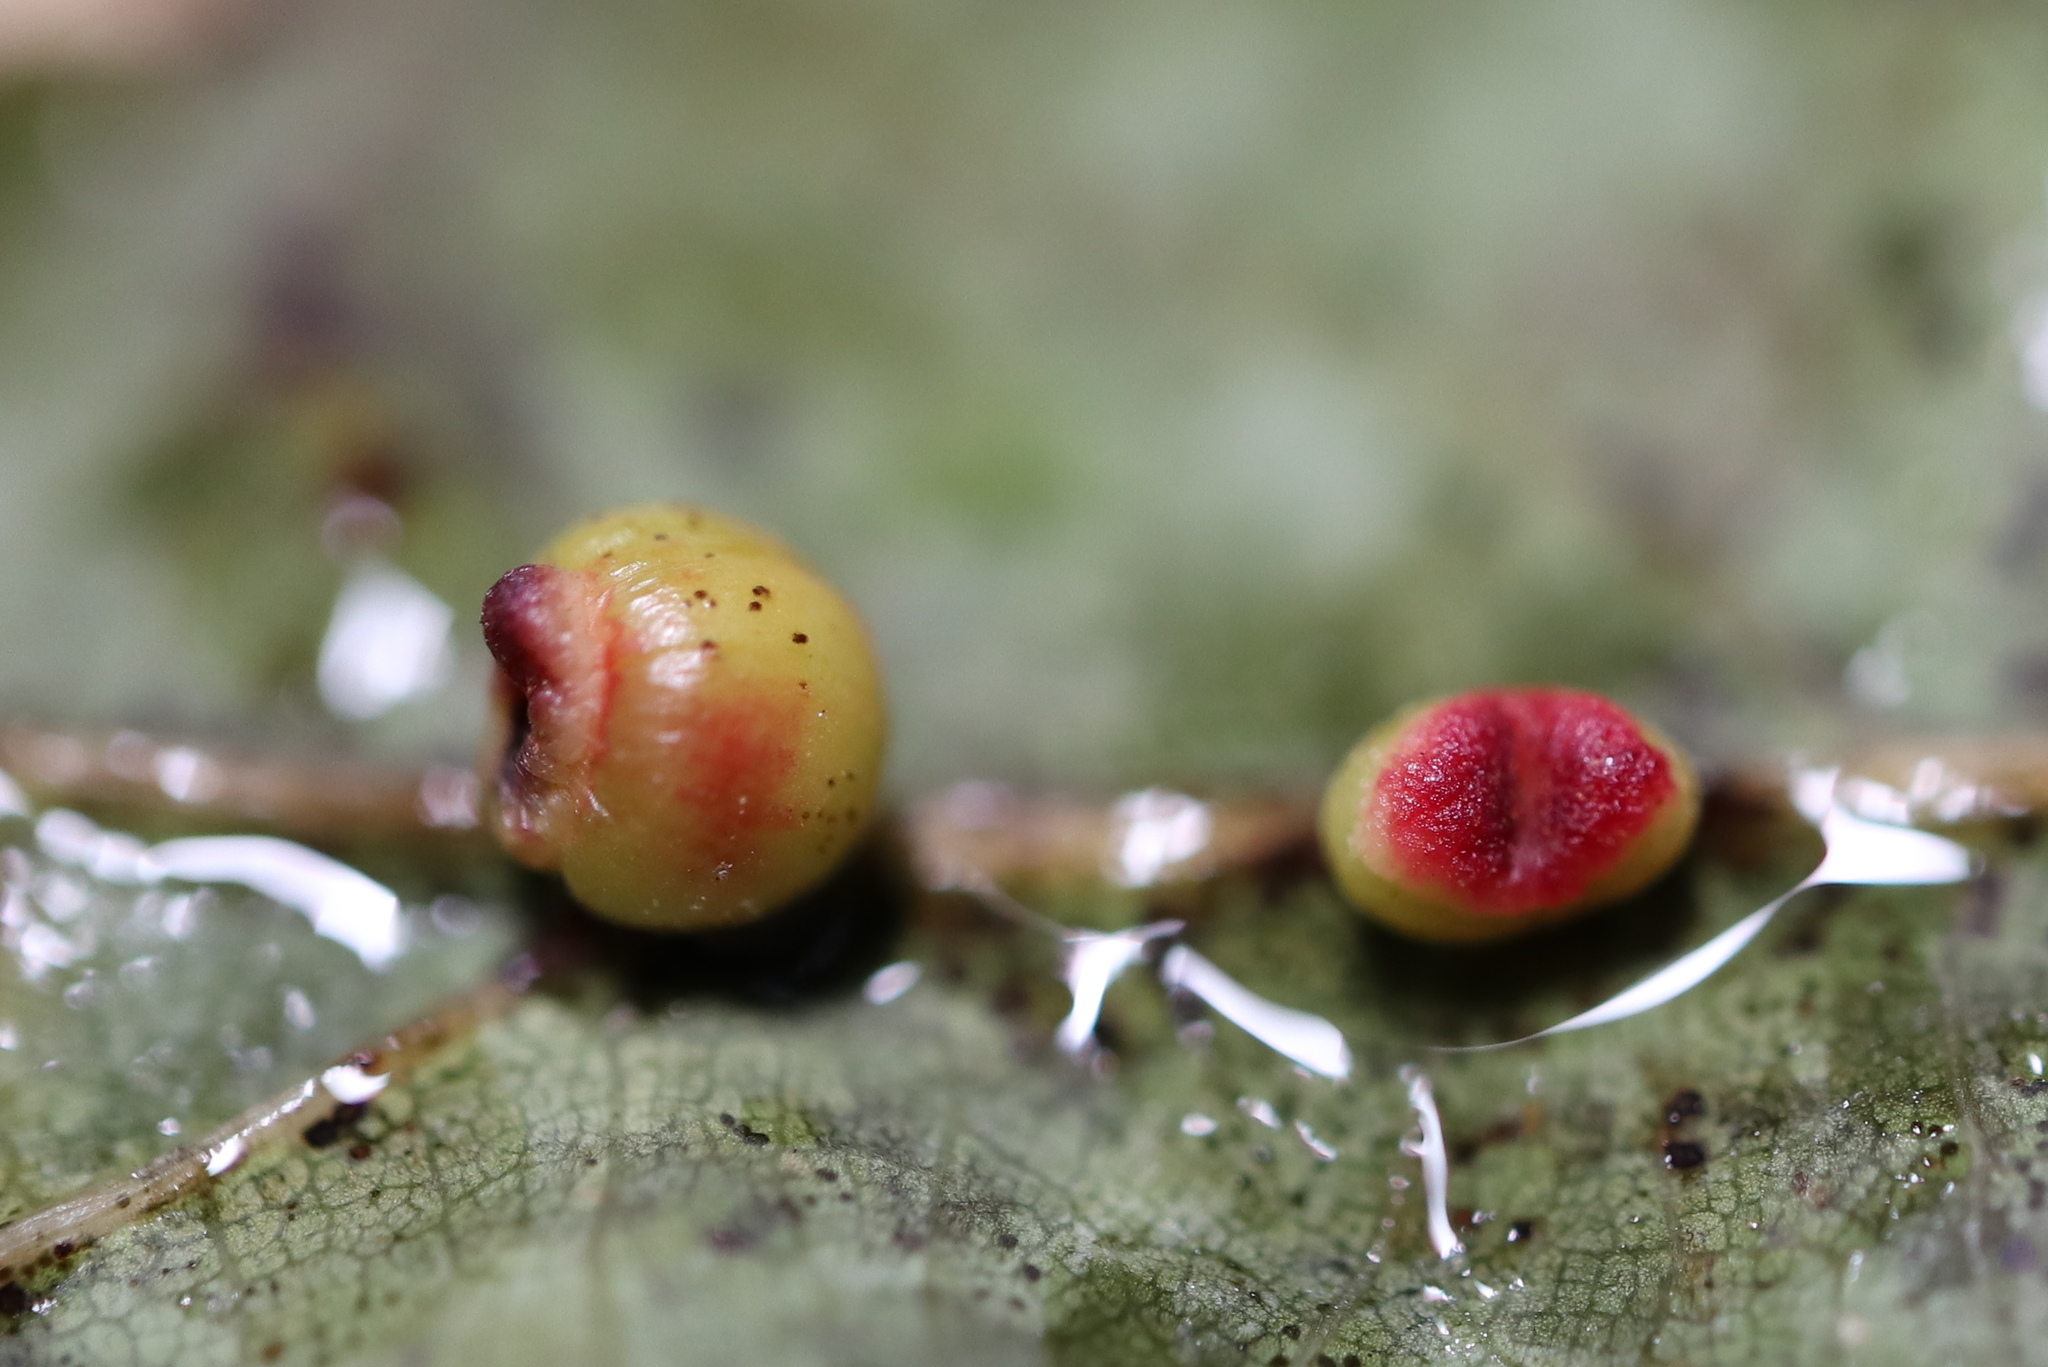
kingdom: Animalia
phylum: Arthropoda
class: Insecta
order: Hymenoptera
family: Cynipidae
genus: Kokkocynips
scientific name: Kokkocynips rileyi
